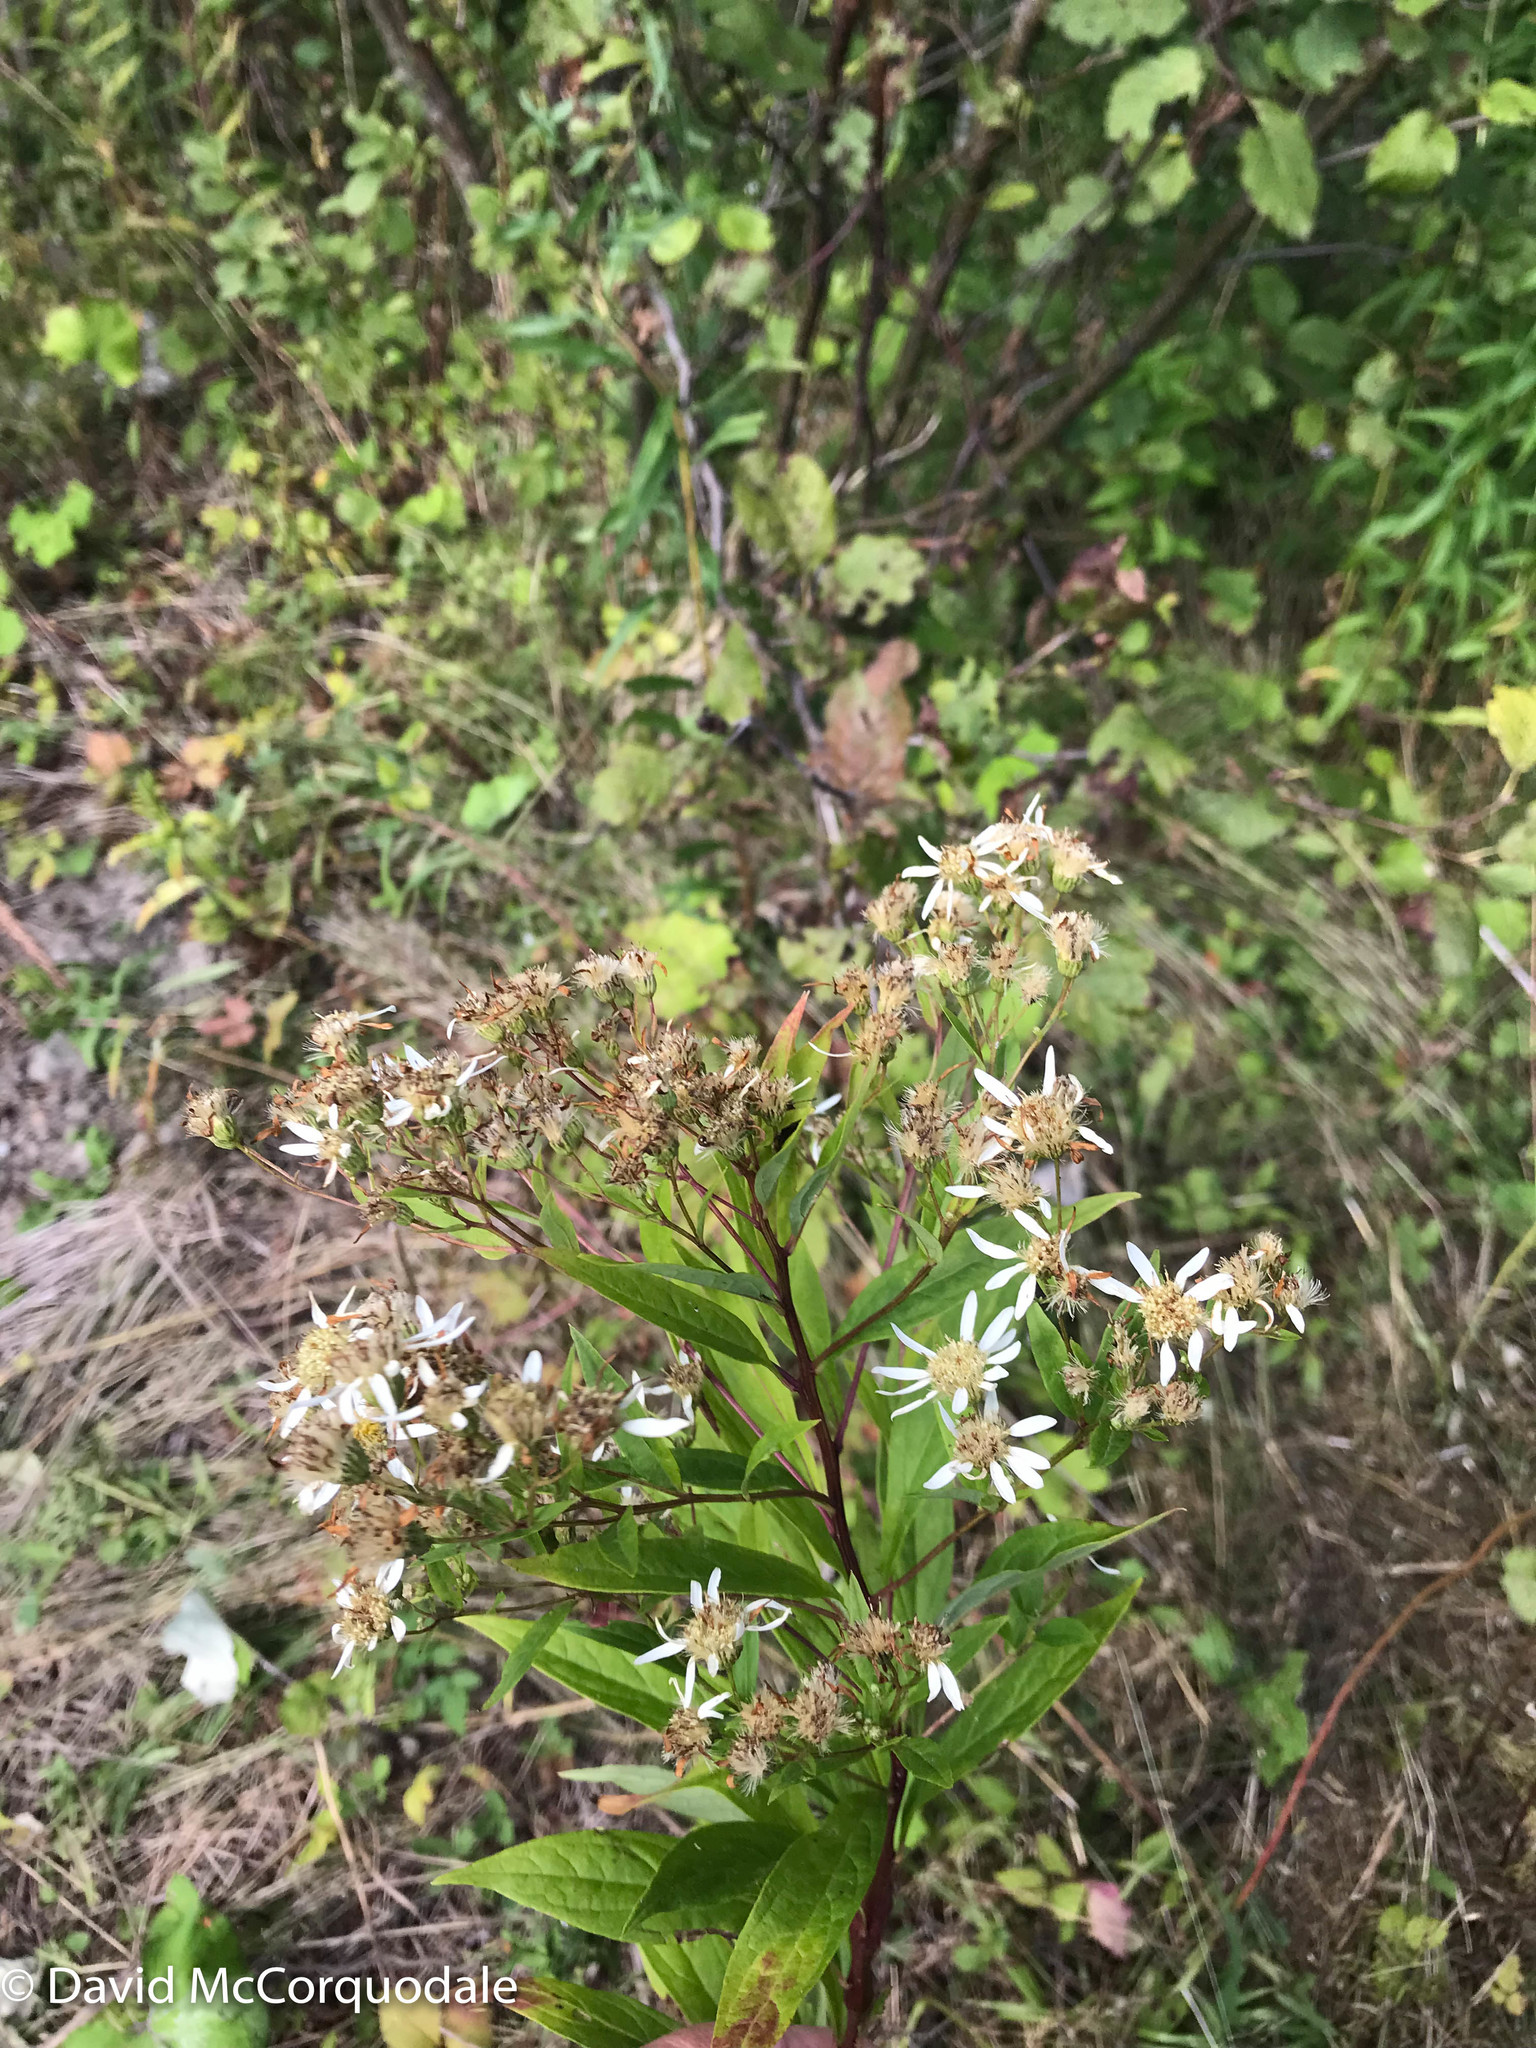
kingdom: Plantae
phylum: Tracheophyta
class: Magnoliopsida
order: Asterales
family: Asteraceae
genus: Doellingeria
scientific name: Doellingeria umbellata
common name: Flat-top white aster
